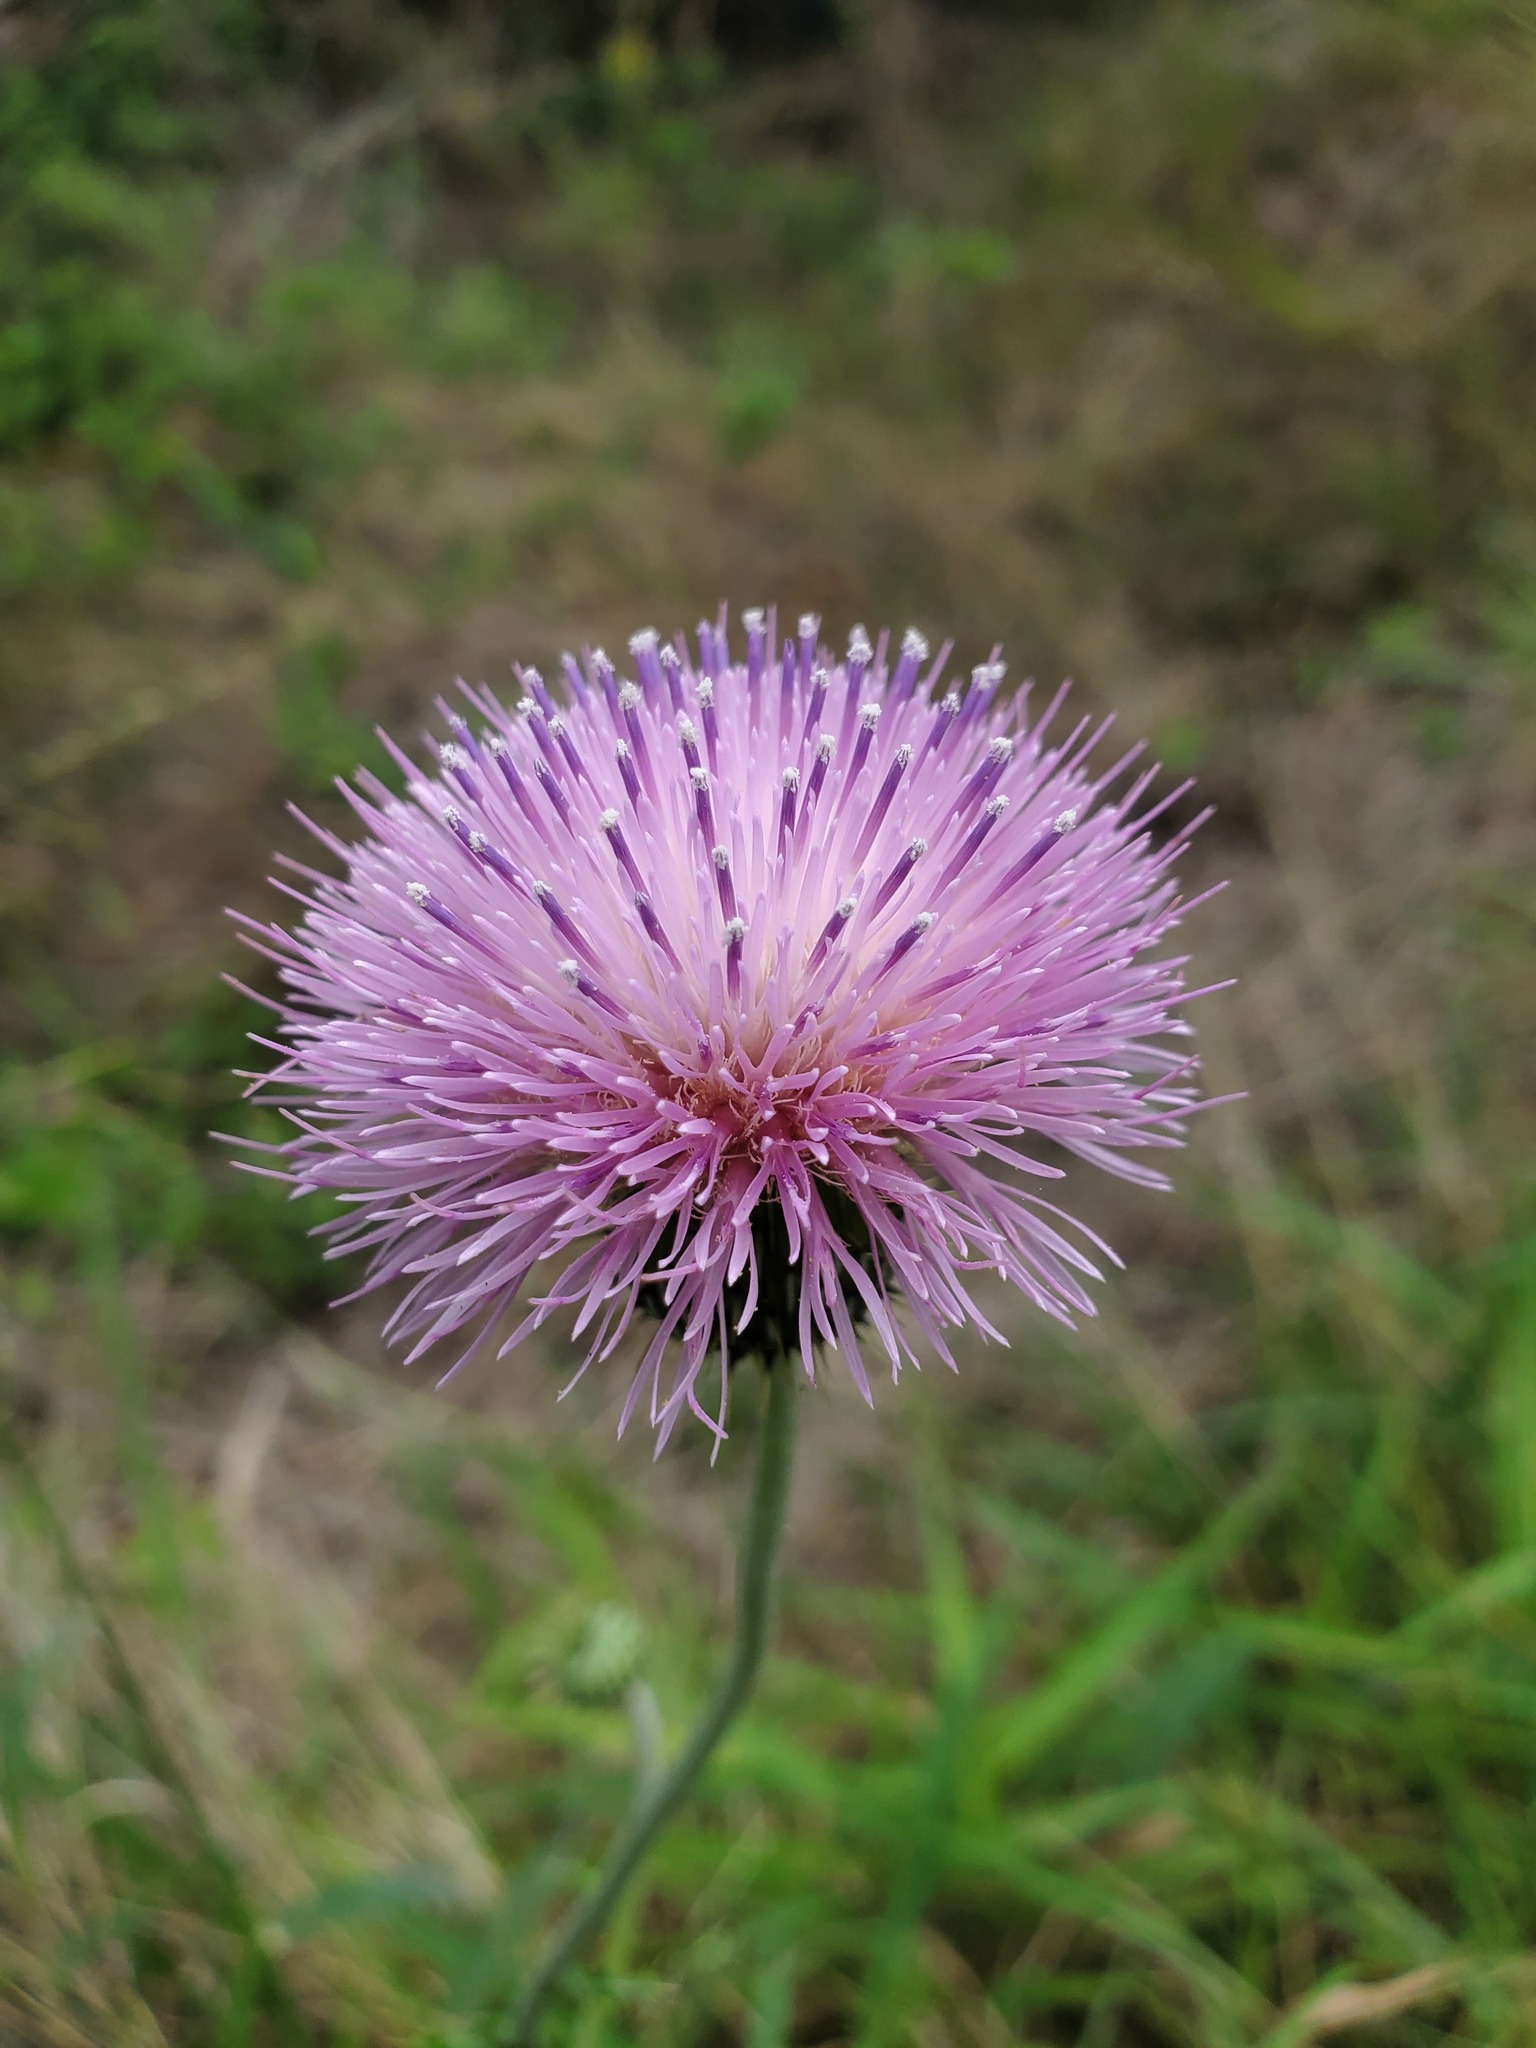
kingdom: Plantae
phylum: Tracheophyta
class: Magnoliopsida
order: Asterales
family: Asteraceae
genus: Cirsium
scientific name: Cirsium texanum
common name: Texas purple thistle
